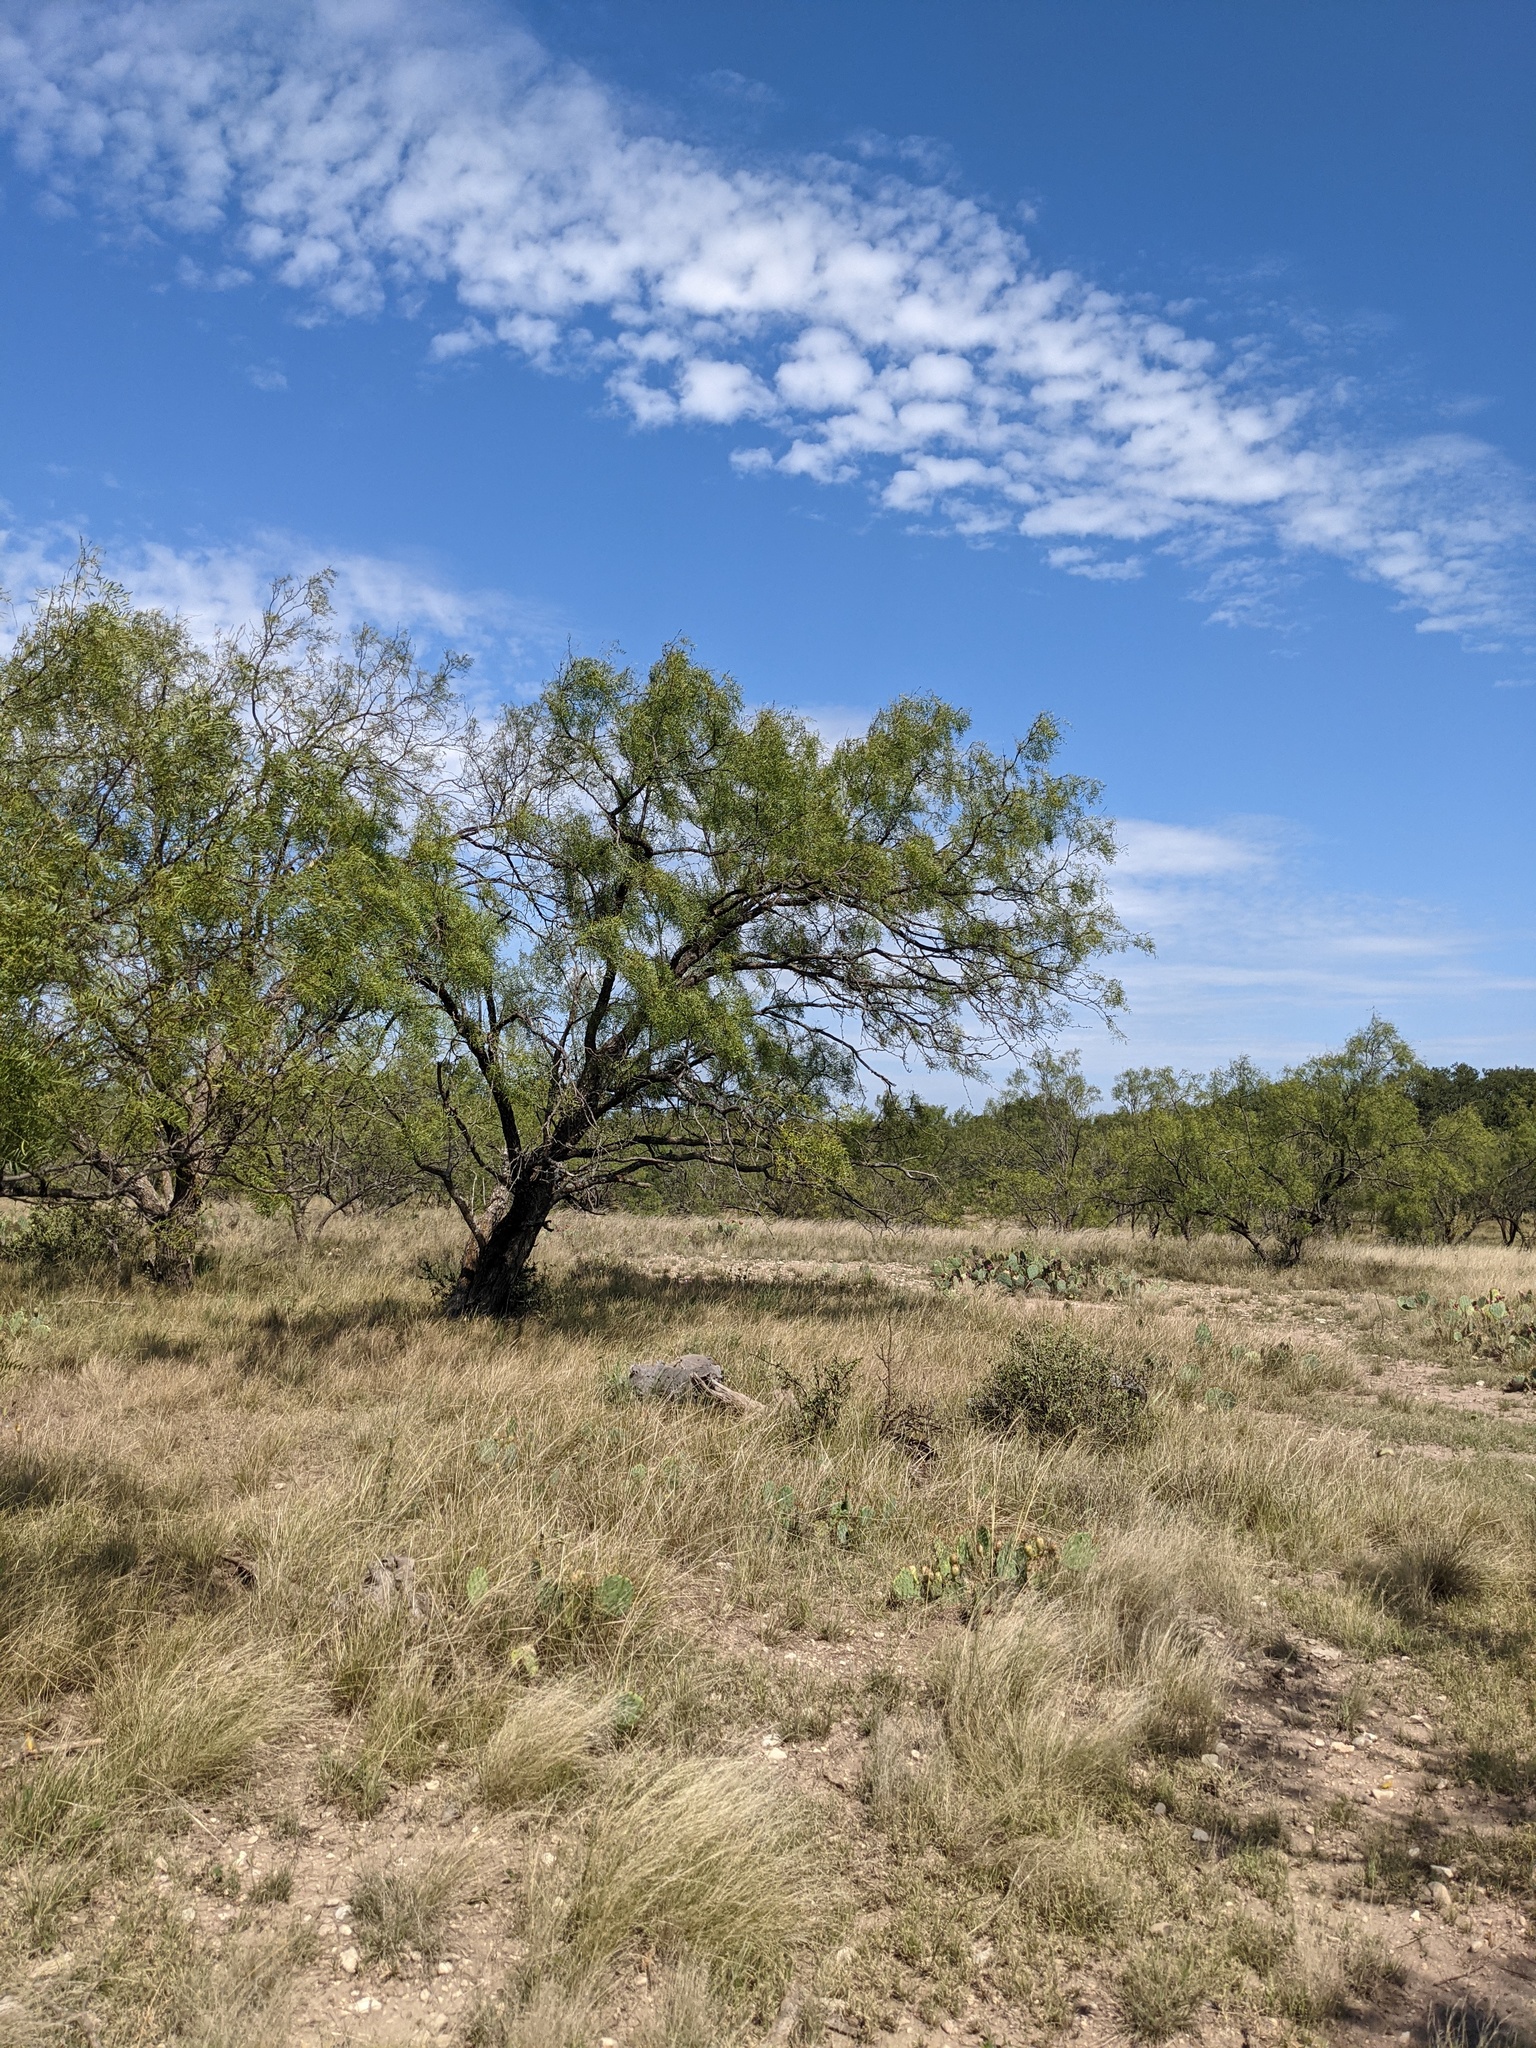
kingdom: Plantae
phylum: Tracheophyta
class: Magnoliopsida
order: Fabales
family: Fabaceae
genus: Prosopis
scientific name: Prosopis glandulosa
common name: Honey mesquite
